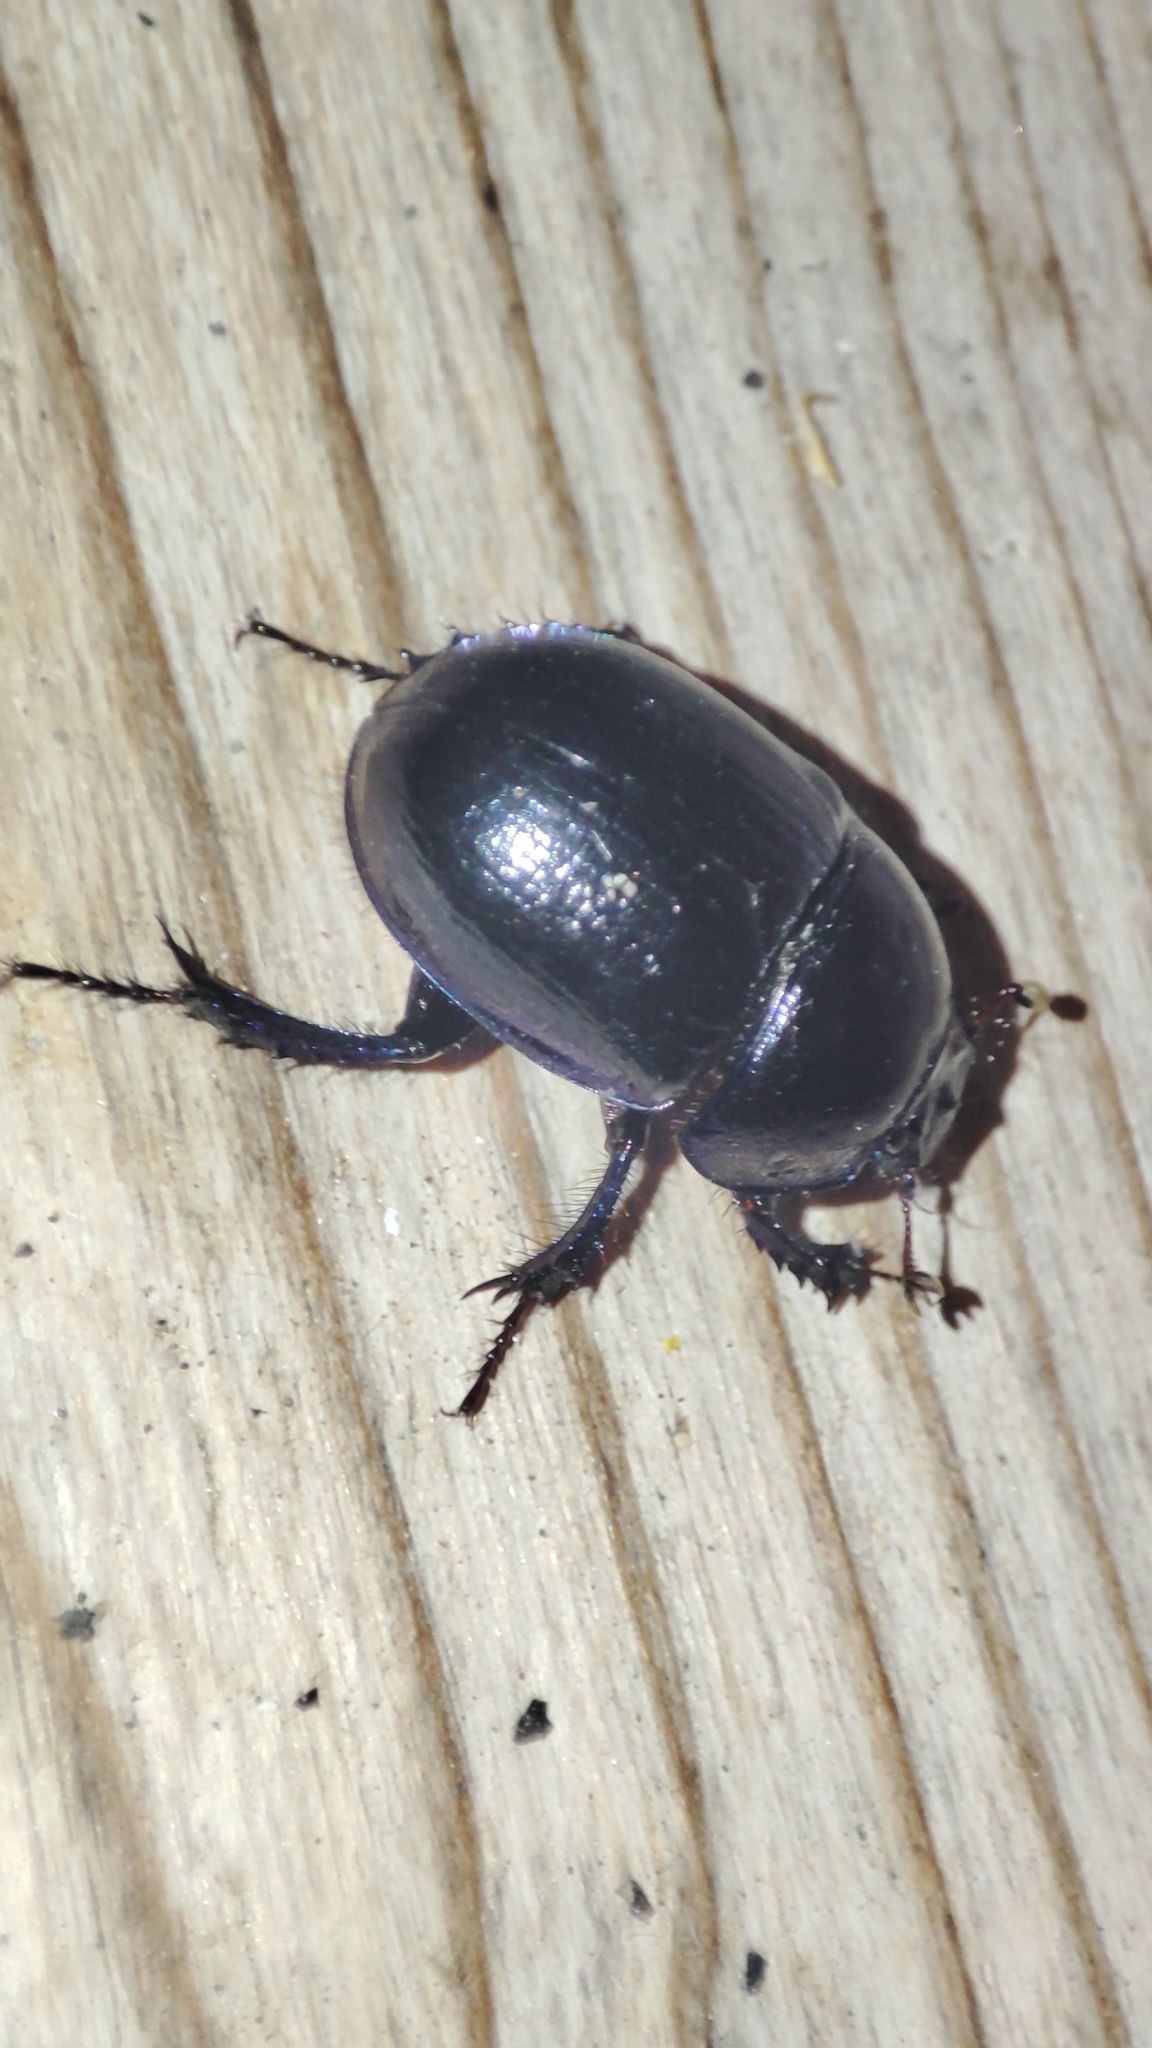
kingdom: Animalia
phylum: Arthropoda
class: Insecta
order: Coleoptera
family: Geotrupidae
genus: Anoplotrupes
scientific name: Anoplotrupes stercorosus
